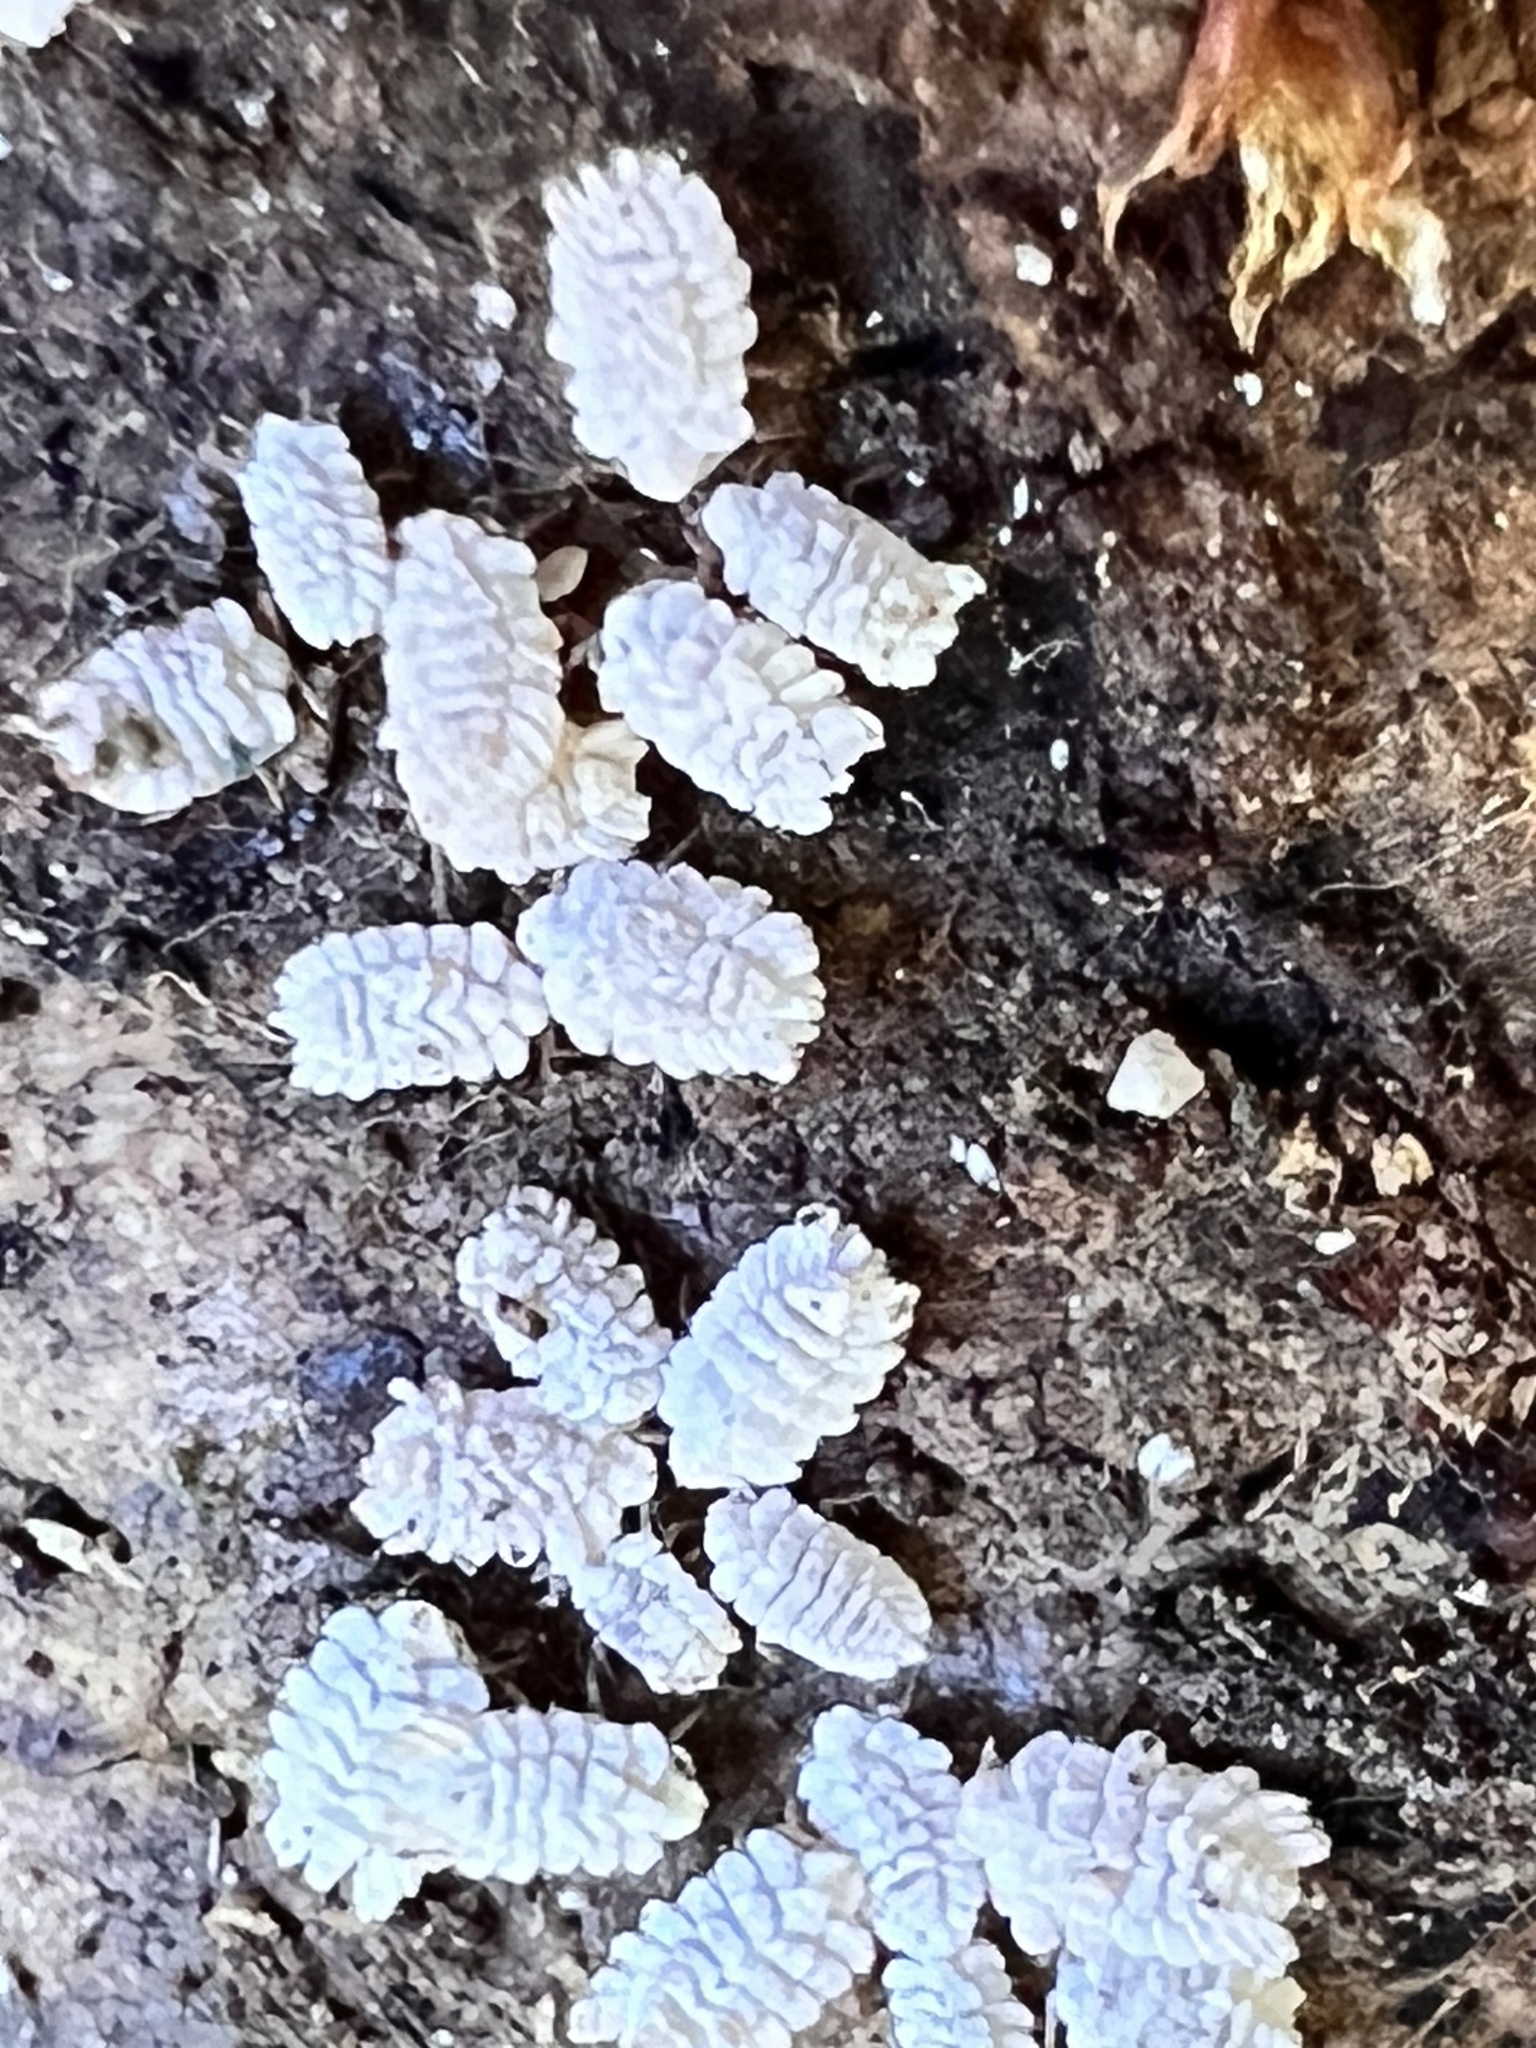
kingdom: Animalia
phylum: Arthropoda
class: Insecta
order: Hemiptera
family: Ortheziidae
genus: Newsteadia
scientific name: Newsteadia gullanae
